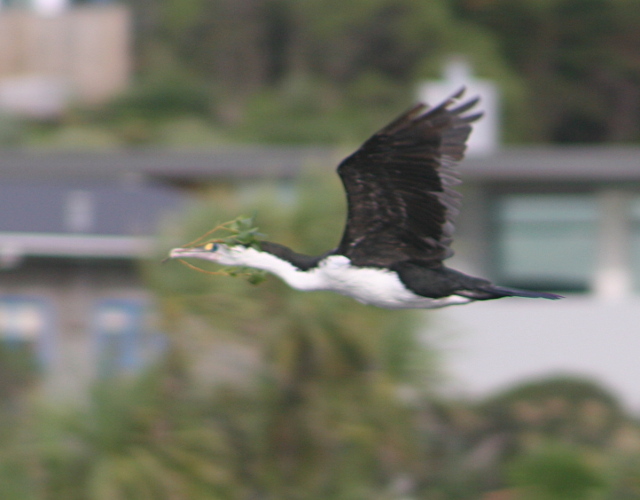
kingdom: Animalia
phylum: Chordata
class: Aves
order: Suliformes
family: Phalacrocoracidae
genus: Phalacrocorax
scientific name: Phalacrocorax varius
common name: Pied cormorant
